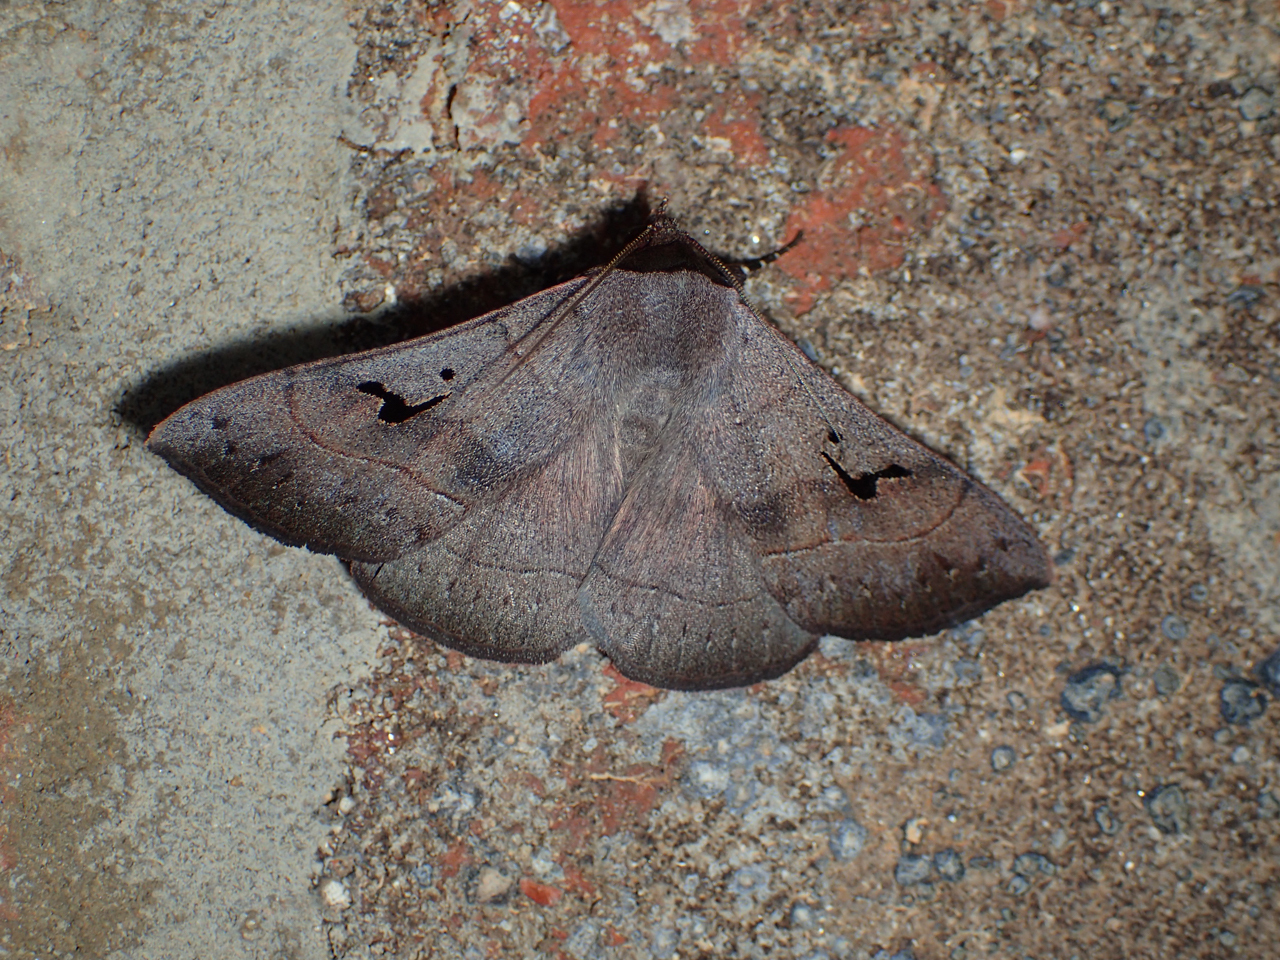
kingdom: Animalia
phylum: Arthropoda
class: Insecta
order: Lepidoptera
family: Erebidae
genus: Panopoda
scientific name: Panopoda carneicosta
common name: Brown panopoda moth
